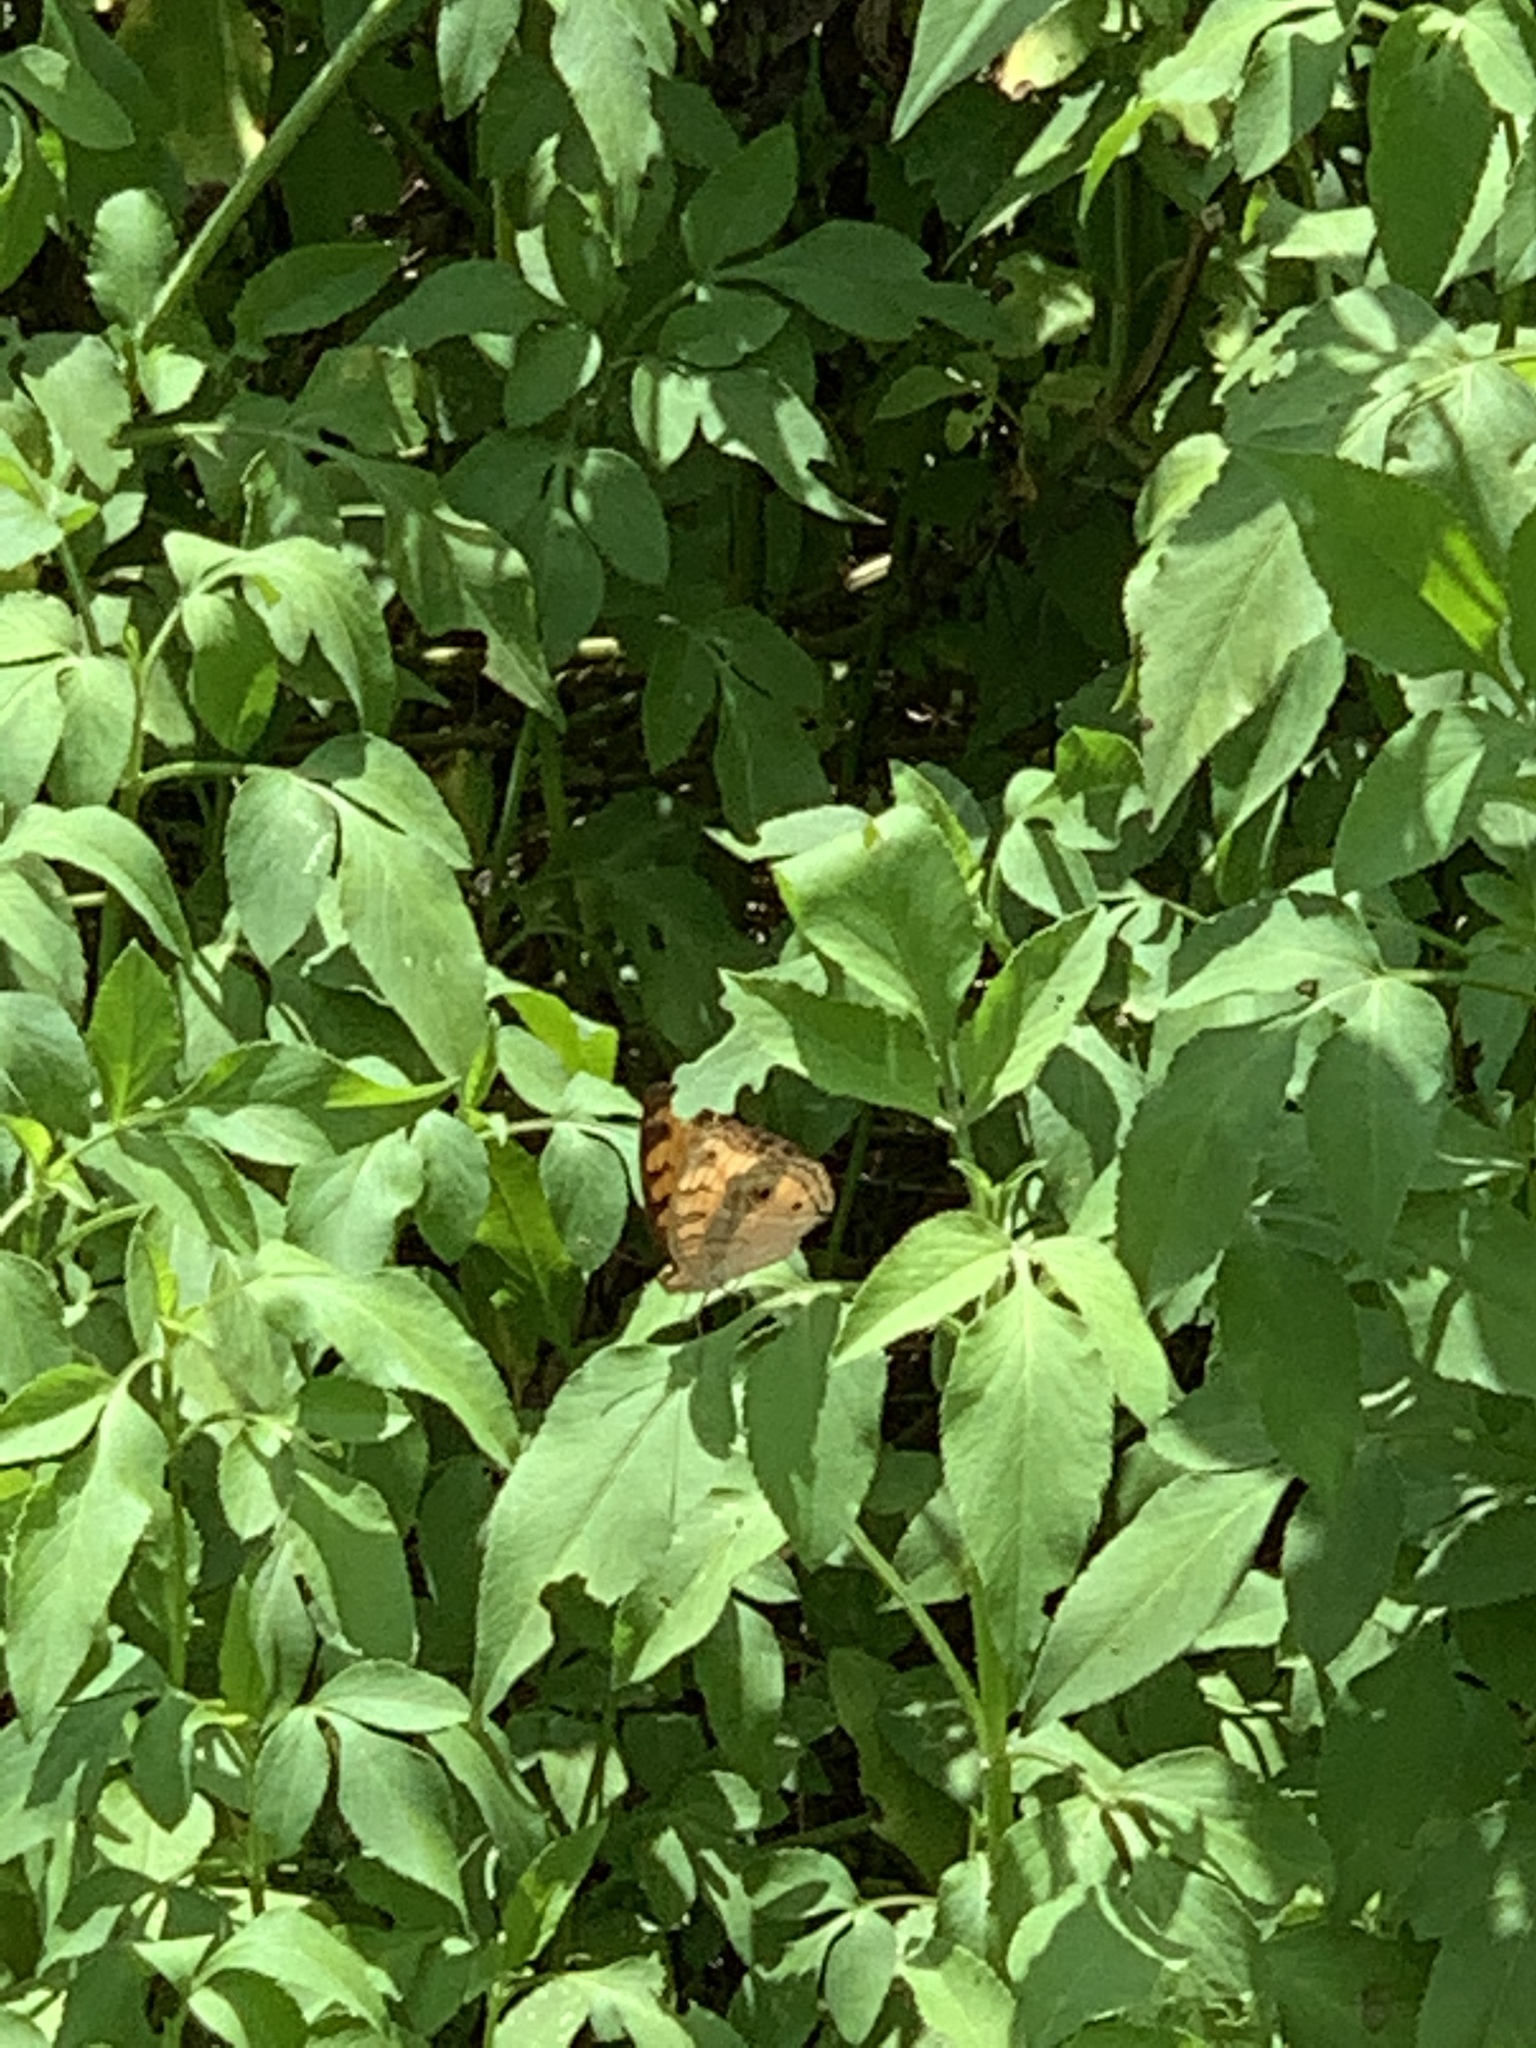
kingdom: Animalia
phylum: Arthropoda
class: Insecta
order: Lepidoptera
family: Nymphalidae
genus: Junonia
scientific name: Junonia almana
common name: Peacock pansy
